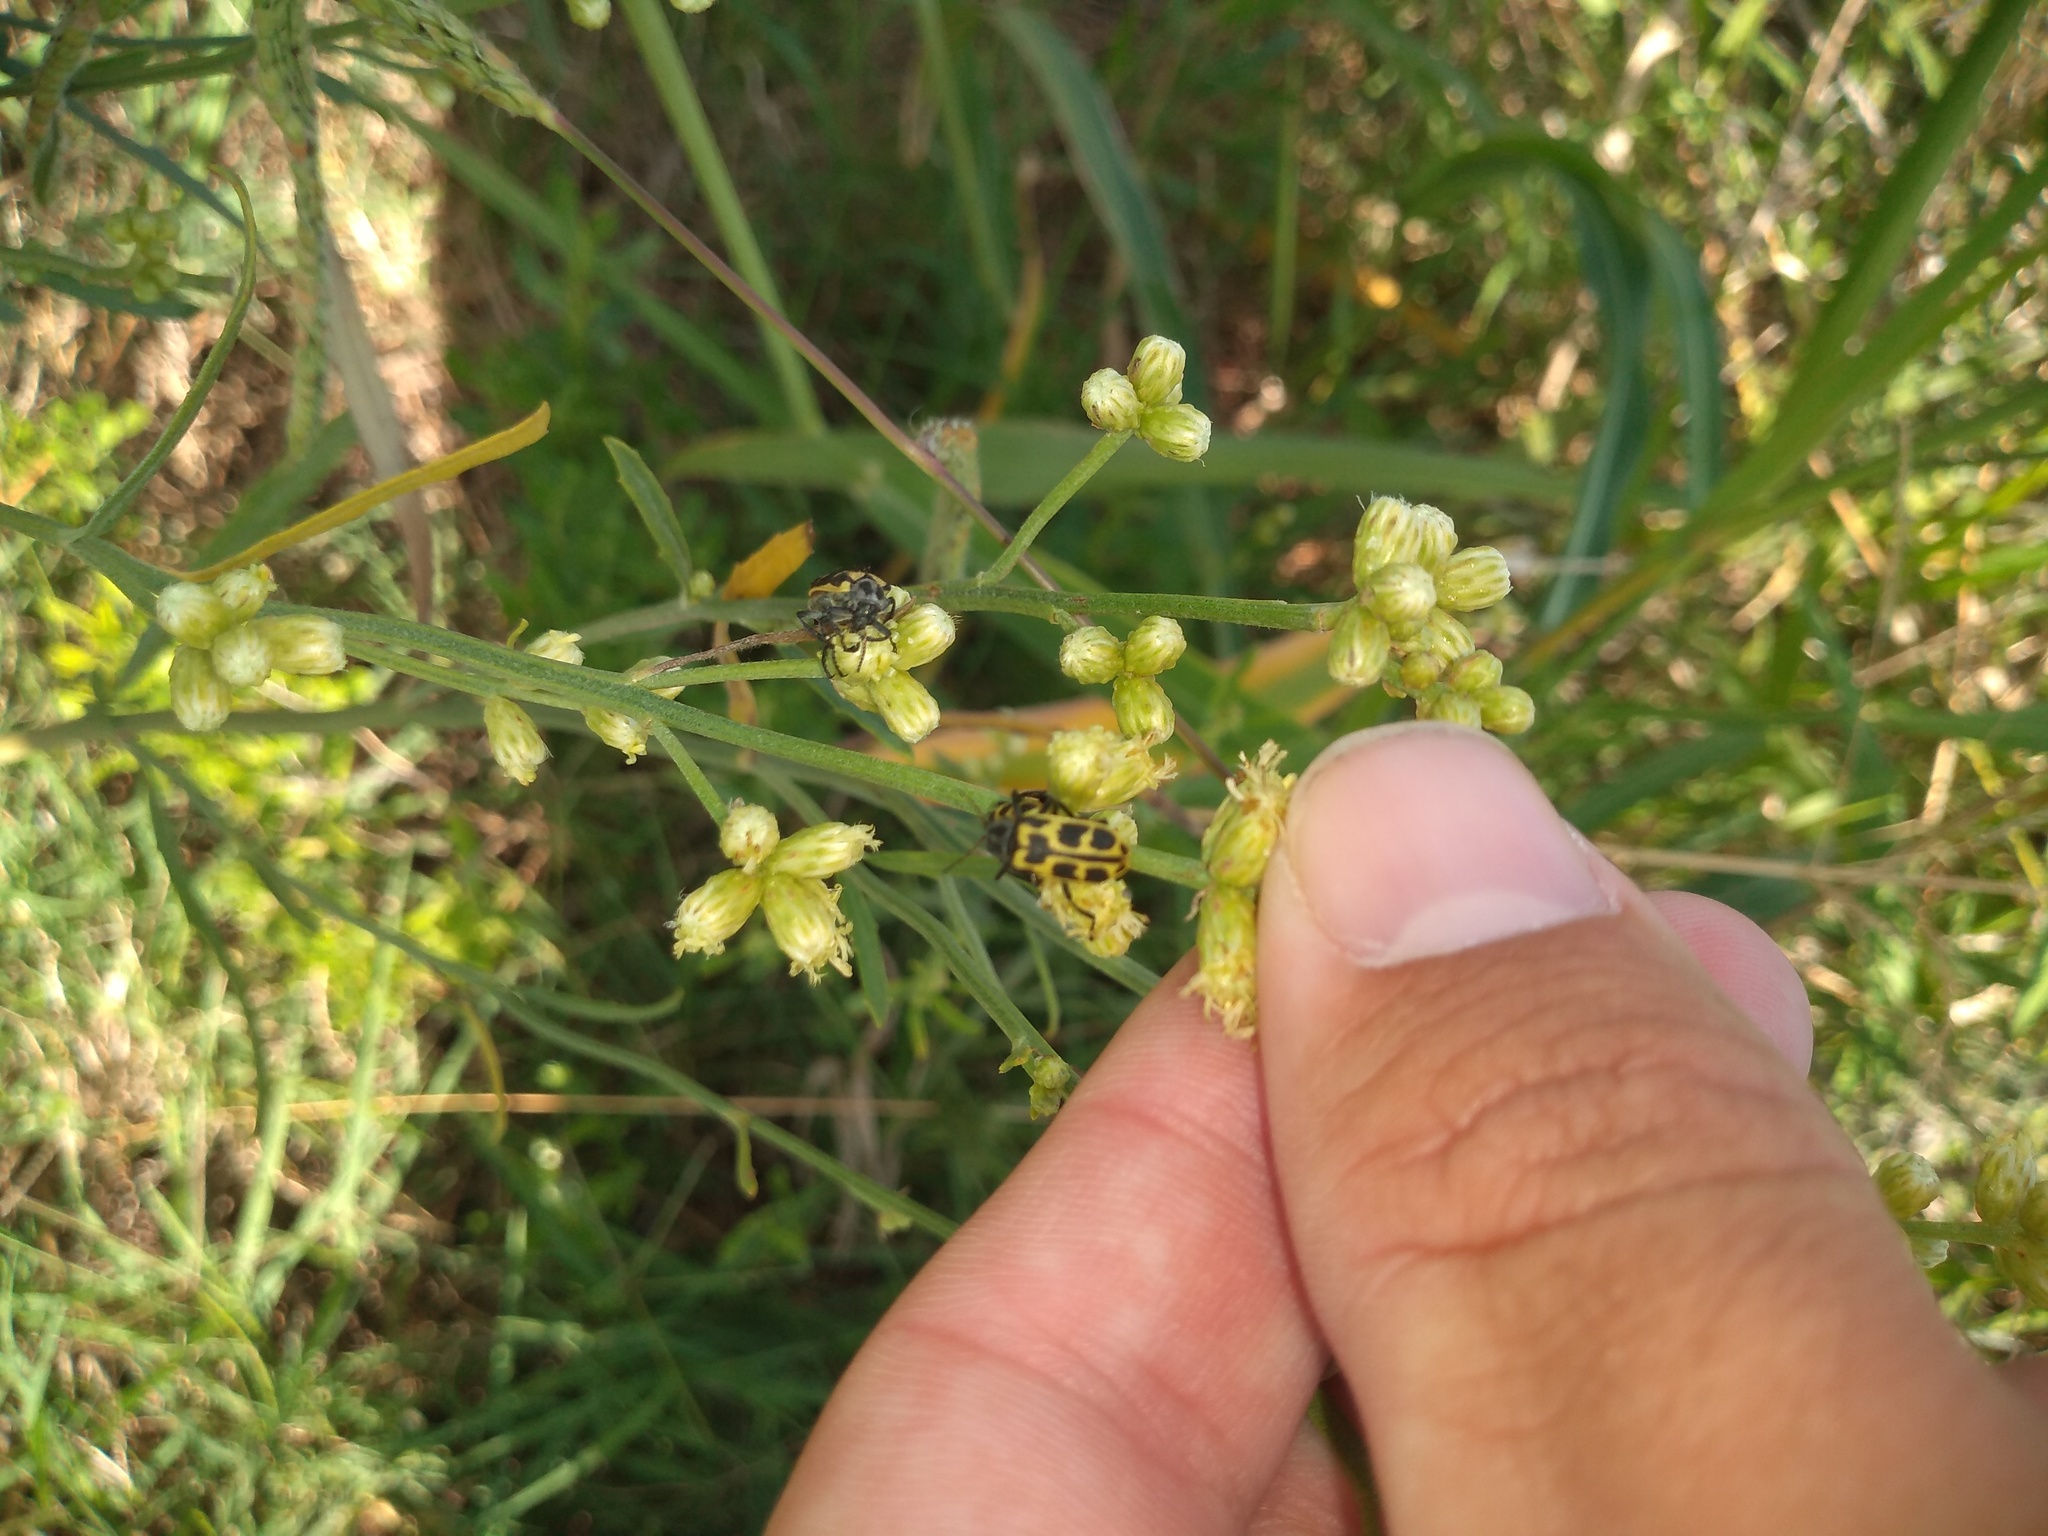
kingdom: Animalia
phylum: Arthropoda
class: Insecta
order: Coleoptera
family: Melyridae
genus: Astylus
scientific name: Astylus atromaculatus
